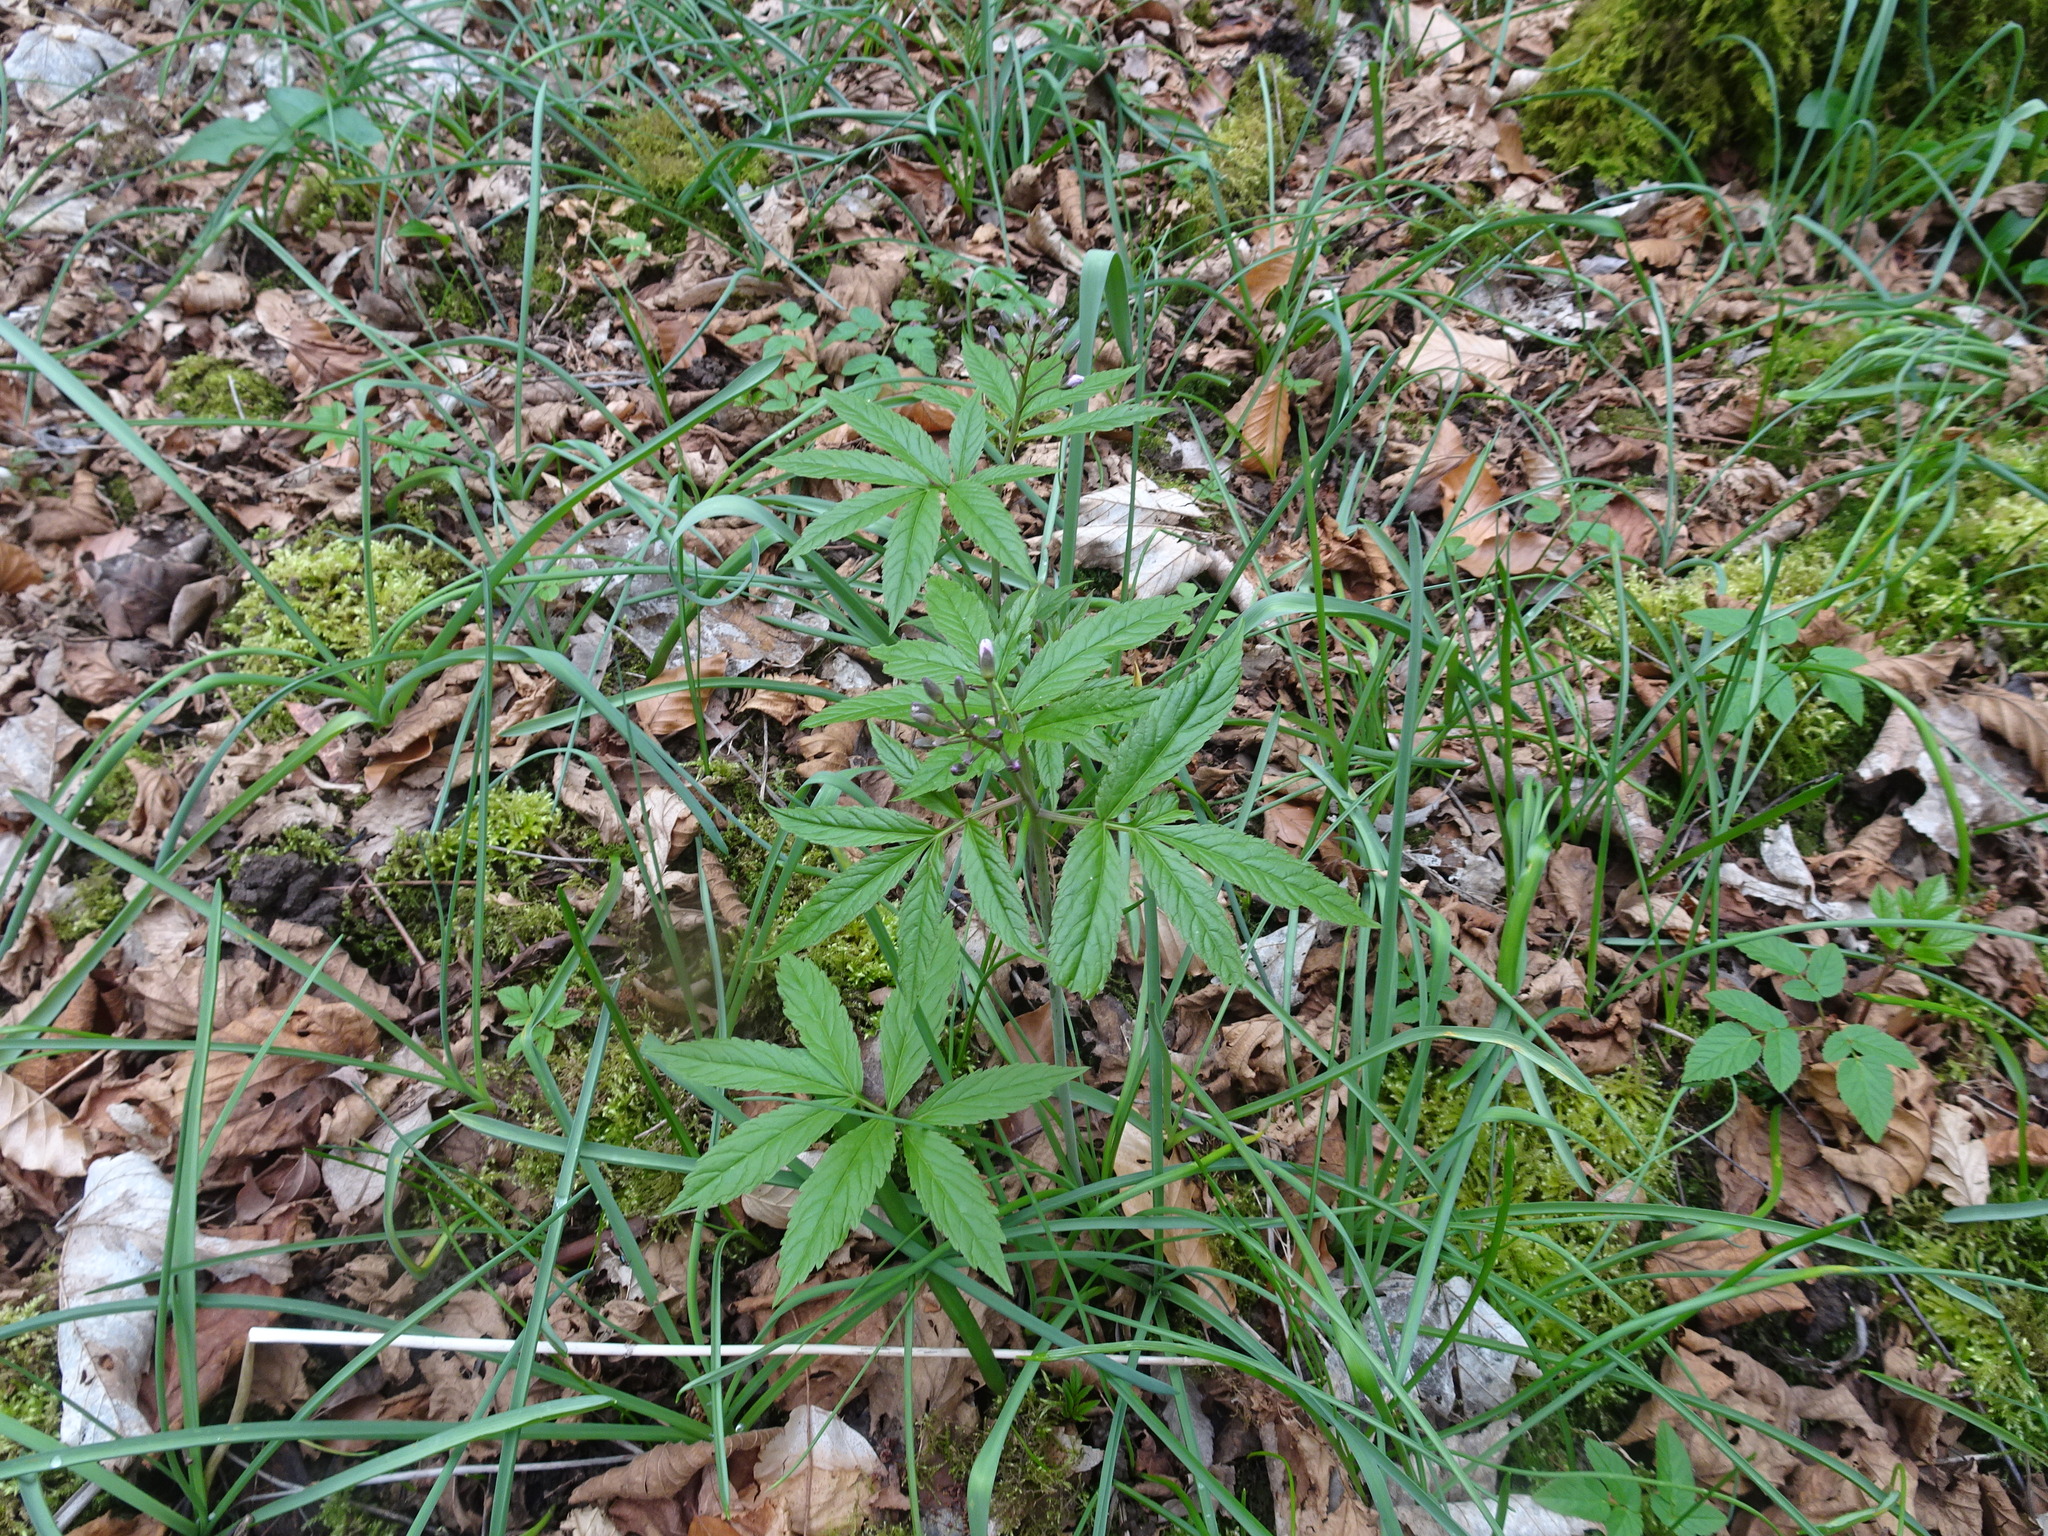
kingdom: Plantae
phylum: Tracheophyta
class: Magnoliopsida
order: Brassicales
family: Brassicaceae
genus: Cardamine
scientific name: Cardamine heptaphylla
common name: Pinnate coralroot
